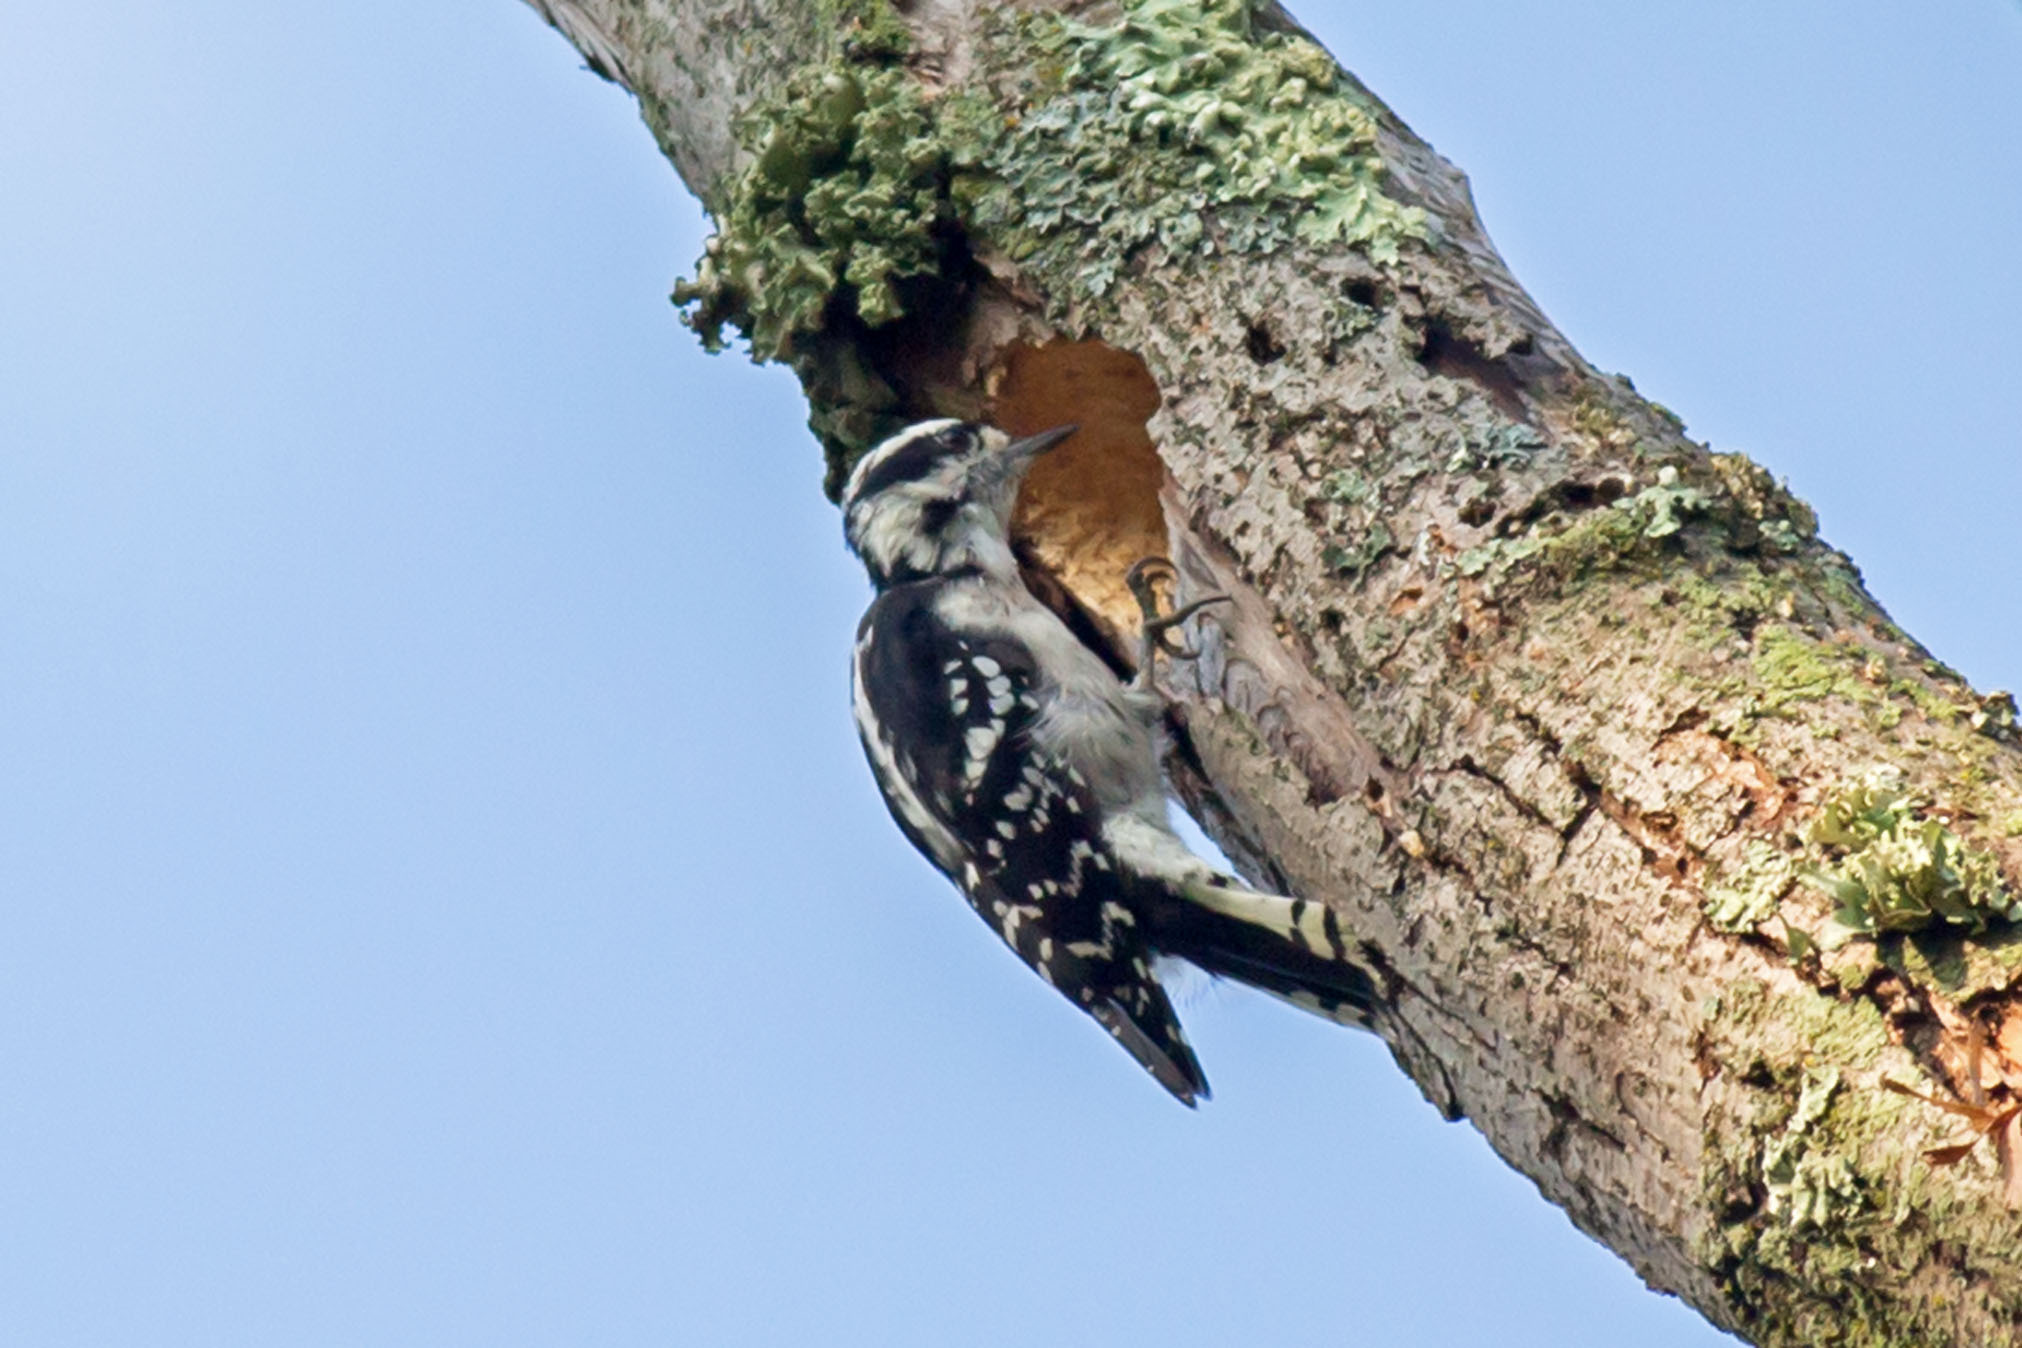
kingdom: Animalia
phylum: Chordata
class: Aves
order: Piciformes
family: Picidae
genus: Dryobates
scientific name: Dryobates pubescens
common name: Downy woodpecker
